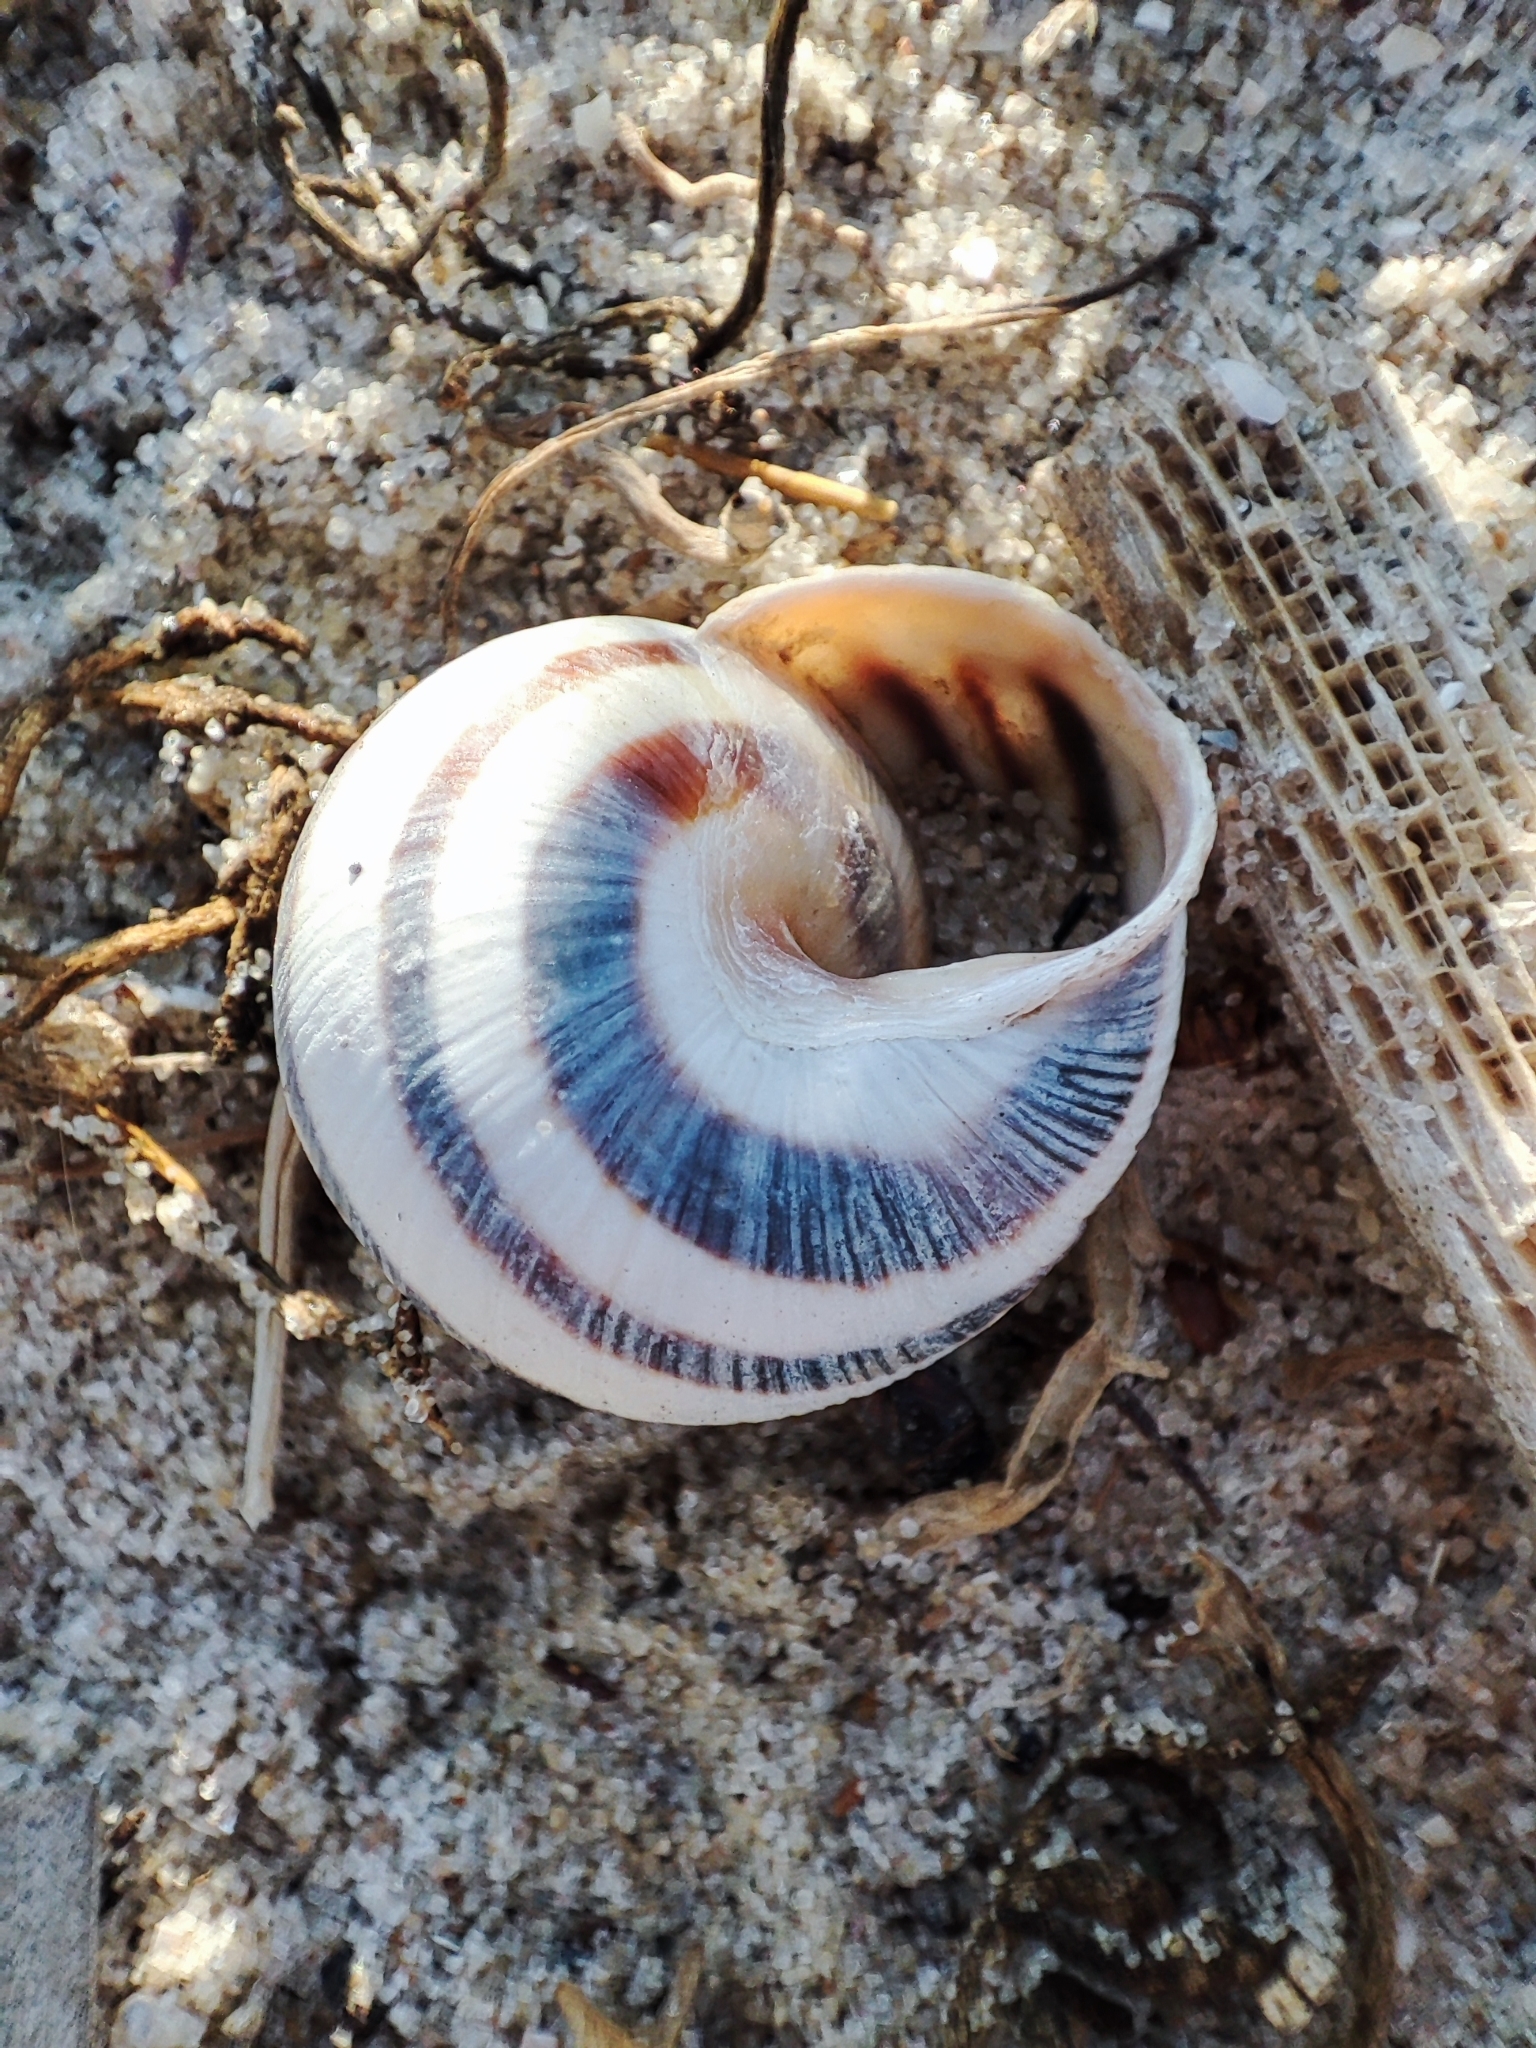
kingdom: Animalia
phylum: Mollusca
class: Gastropoda
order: Stylommatophora
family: Helicidae
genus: Caucasotachea
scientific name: Caucasotachea vindobonensis
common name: European helicid land snail
